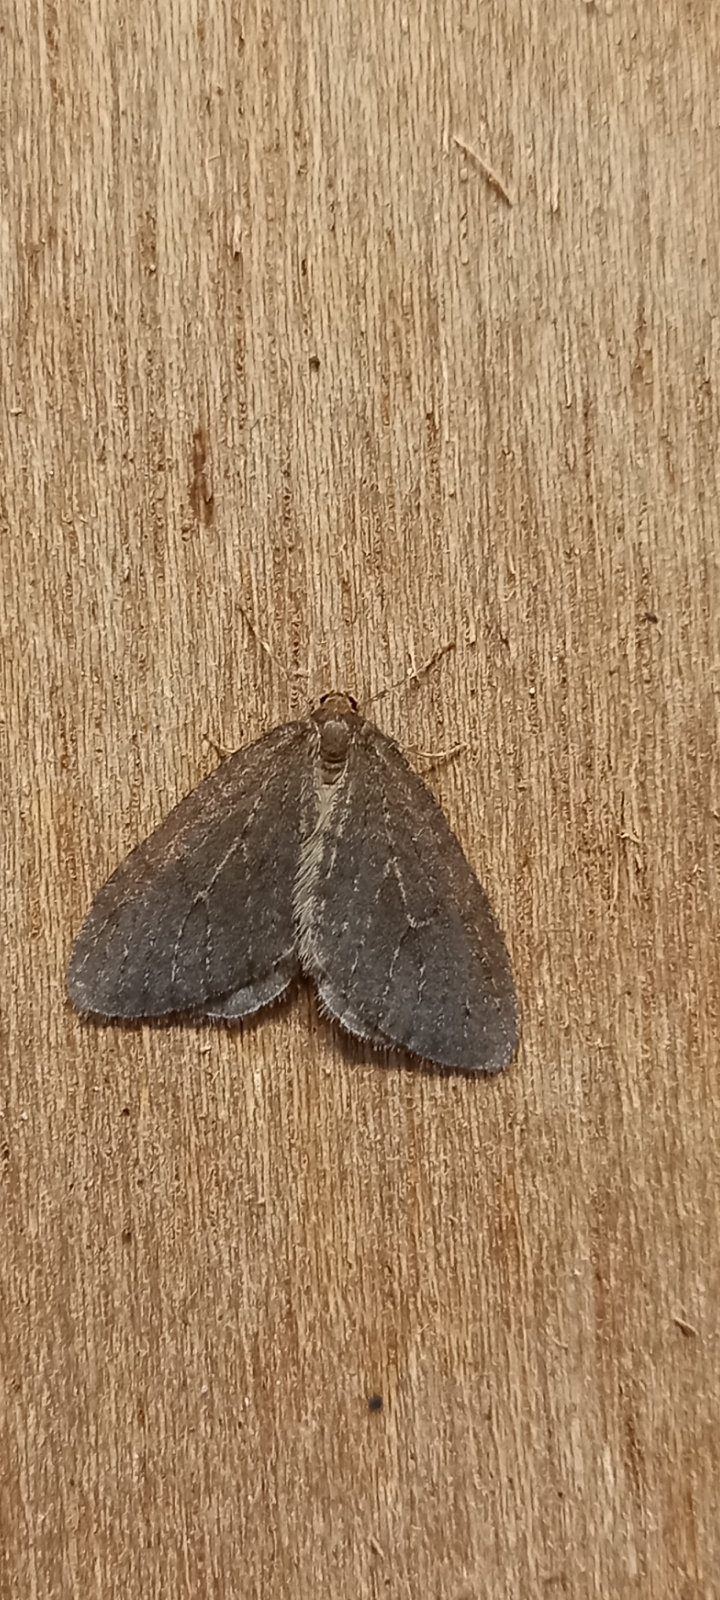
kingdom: Animalia
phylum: Arthropoda
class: Insecta
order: Lepidoptera
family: Geometridae
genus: Operophtera
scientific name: Operophtera brumata
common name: Winter moth
